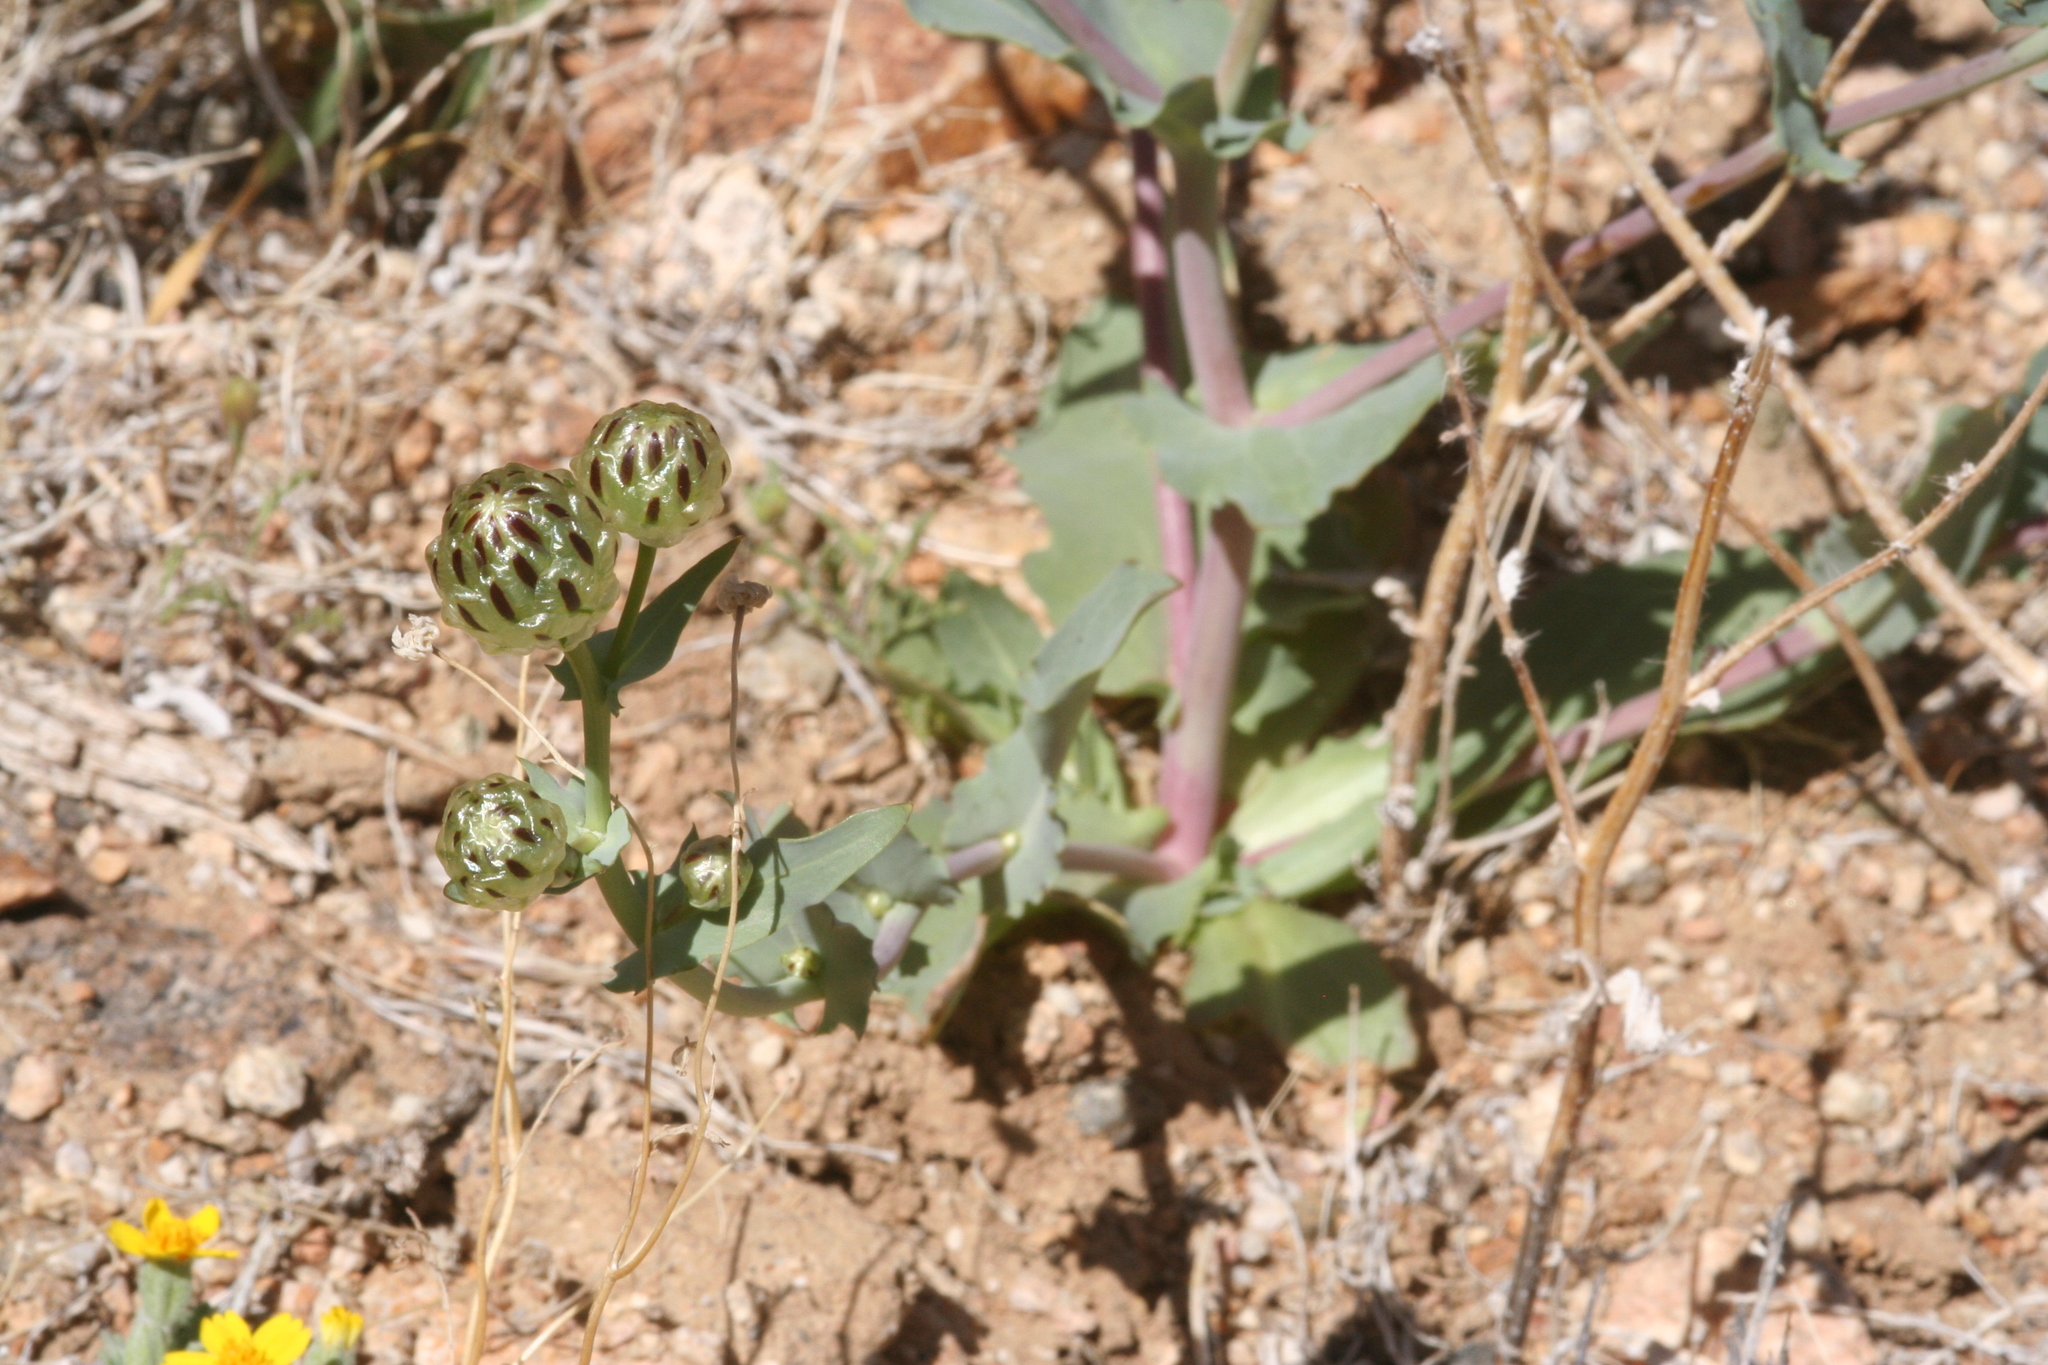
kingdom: Plantae
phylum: Tracheophyta
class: Magnoliopsida
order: Asterales
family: Asteraceae
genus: Malacothrix
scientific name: Malacothrix coulteri
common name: Snake's-head
